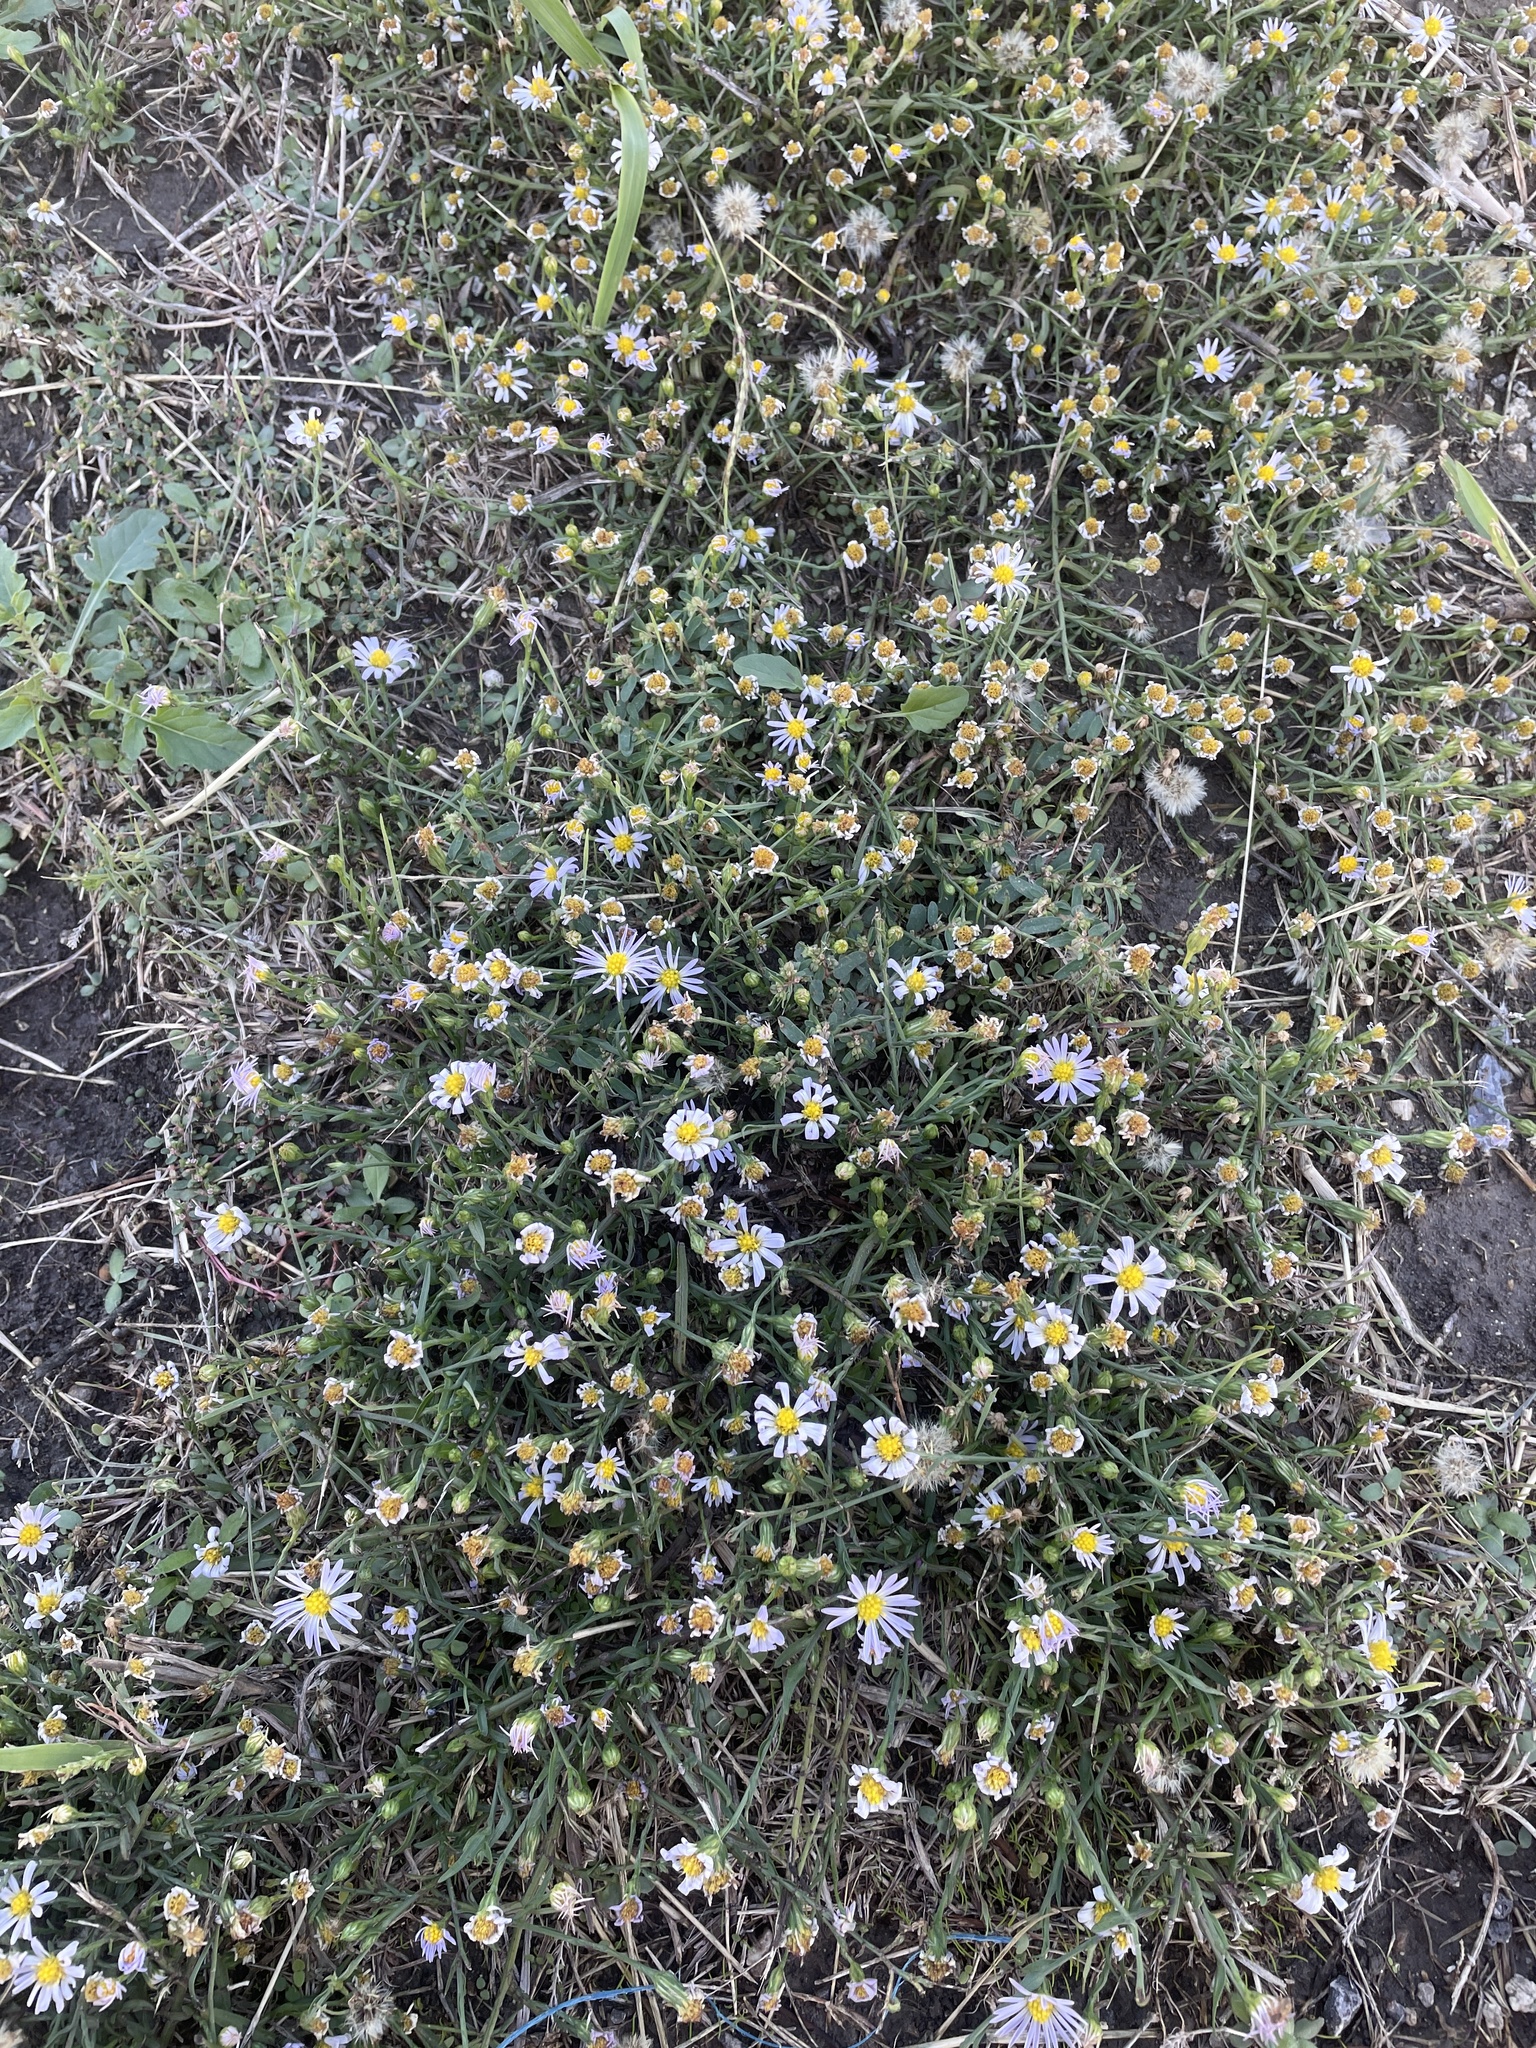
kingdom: Plantae
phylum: Tracheophyta
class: Magnoliopsida
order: Asterales
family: Asteraceae
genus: Symphyotrichum
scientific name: Symphyotrichum divaricatum
